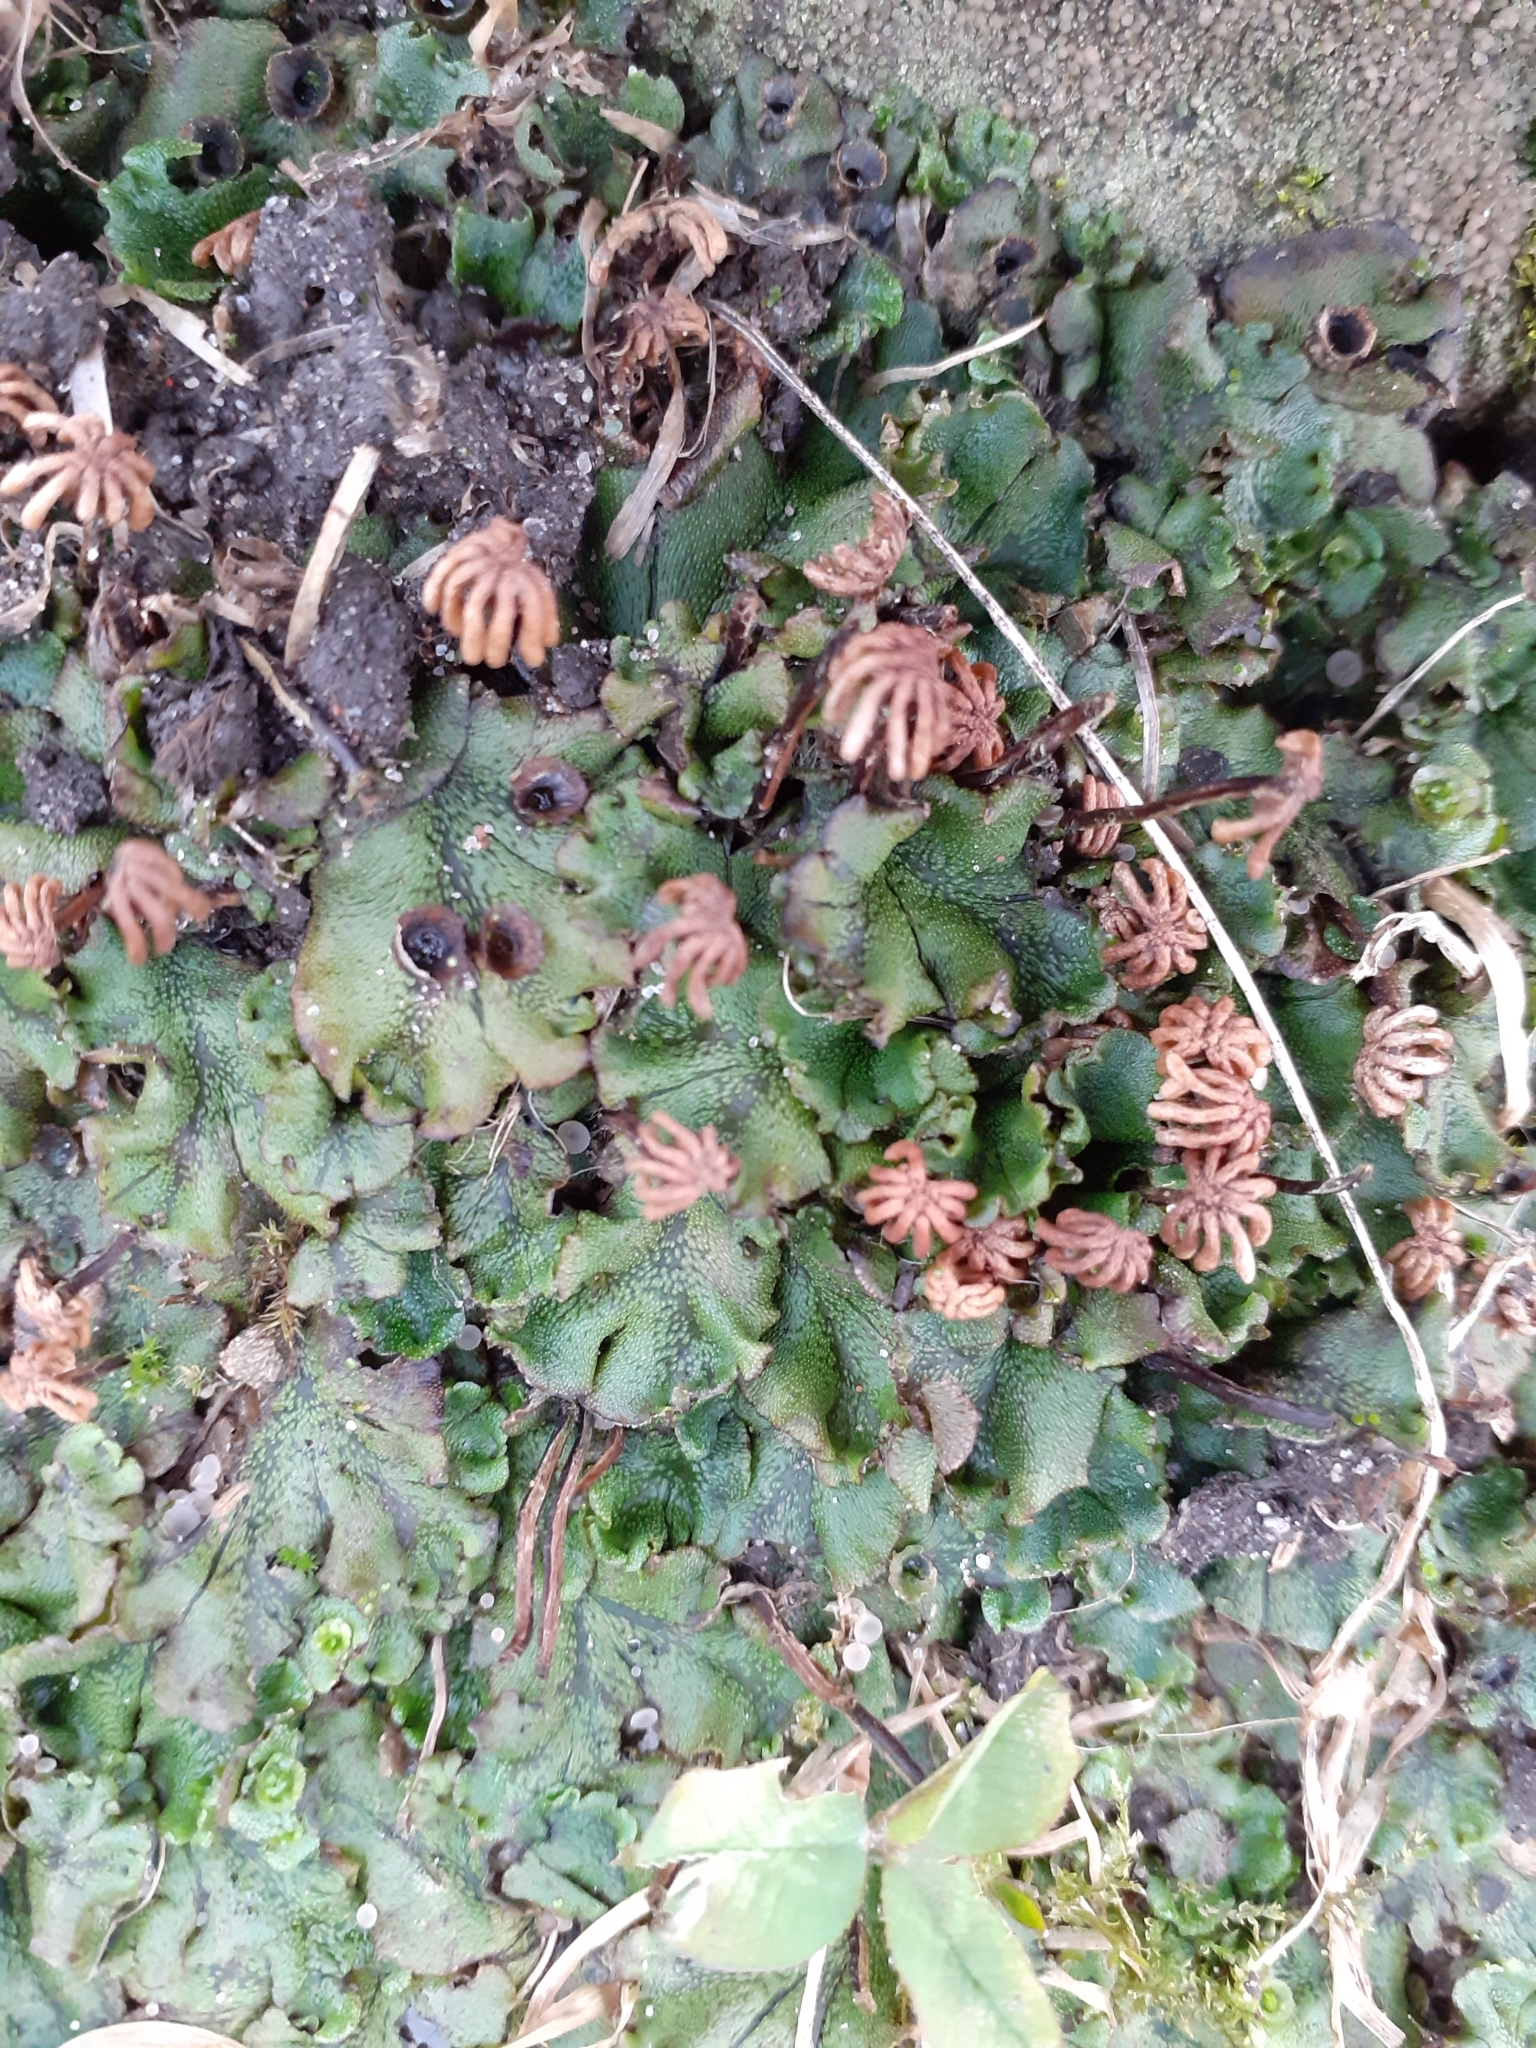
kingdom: Plantae
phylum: Marchantiophyta
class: Marchantiopsida
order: Marchantiales
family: Marchantiaceae
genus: Marchantia
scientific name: Marchantia polymorpha
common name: Common liverwort
